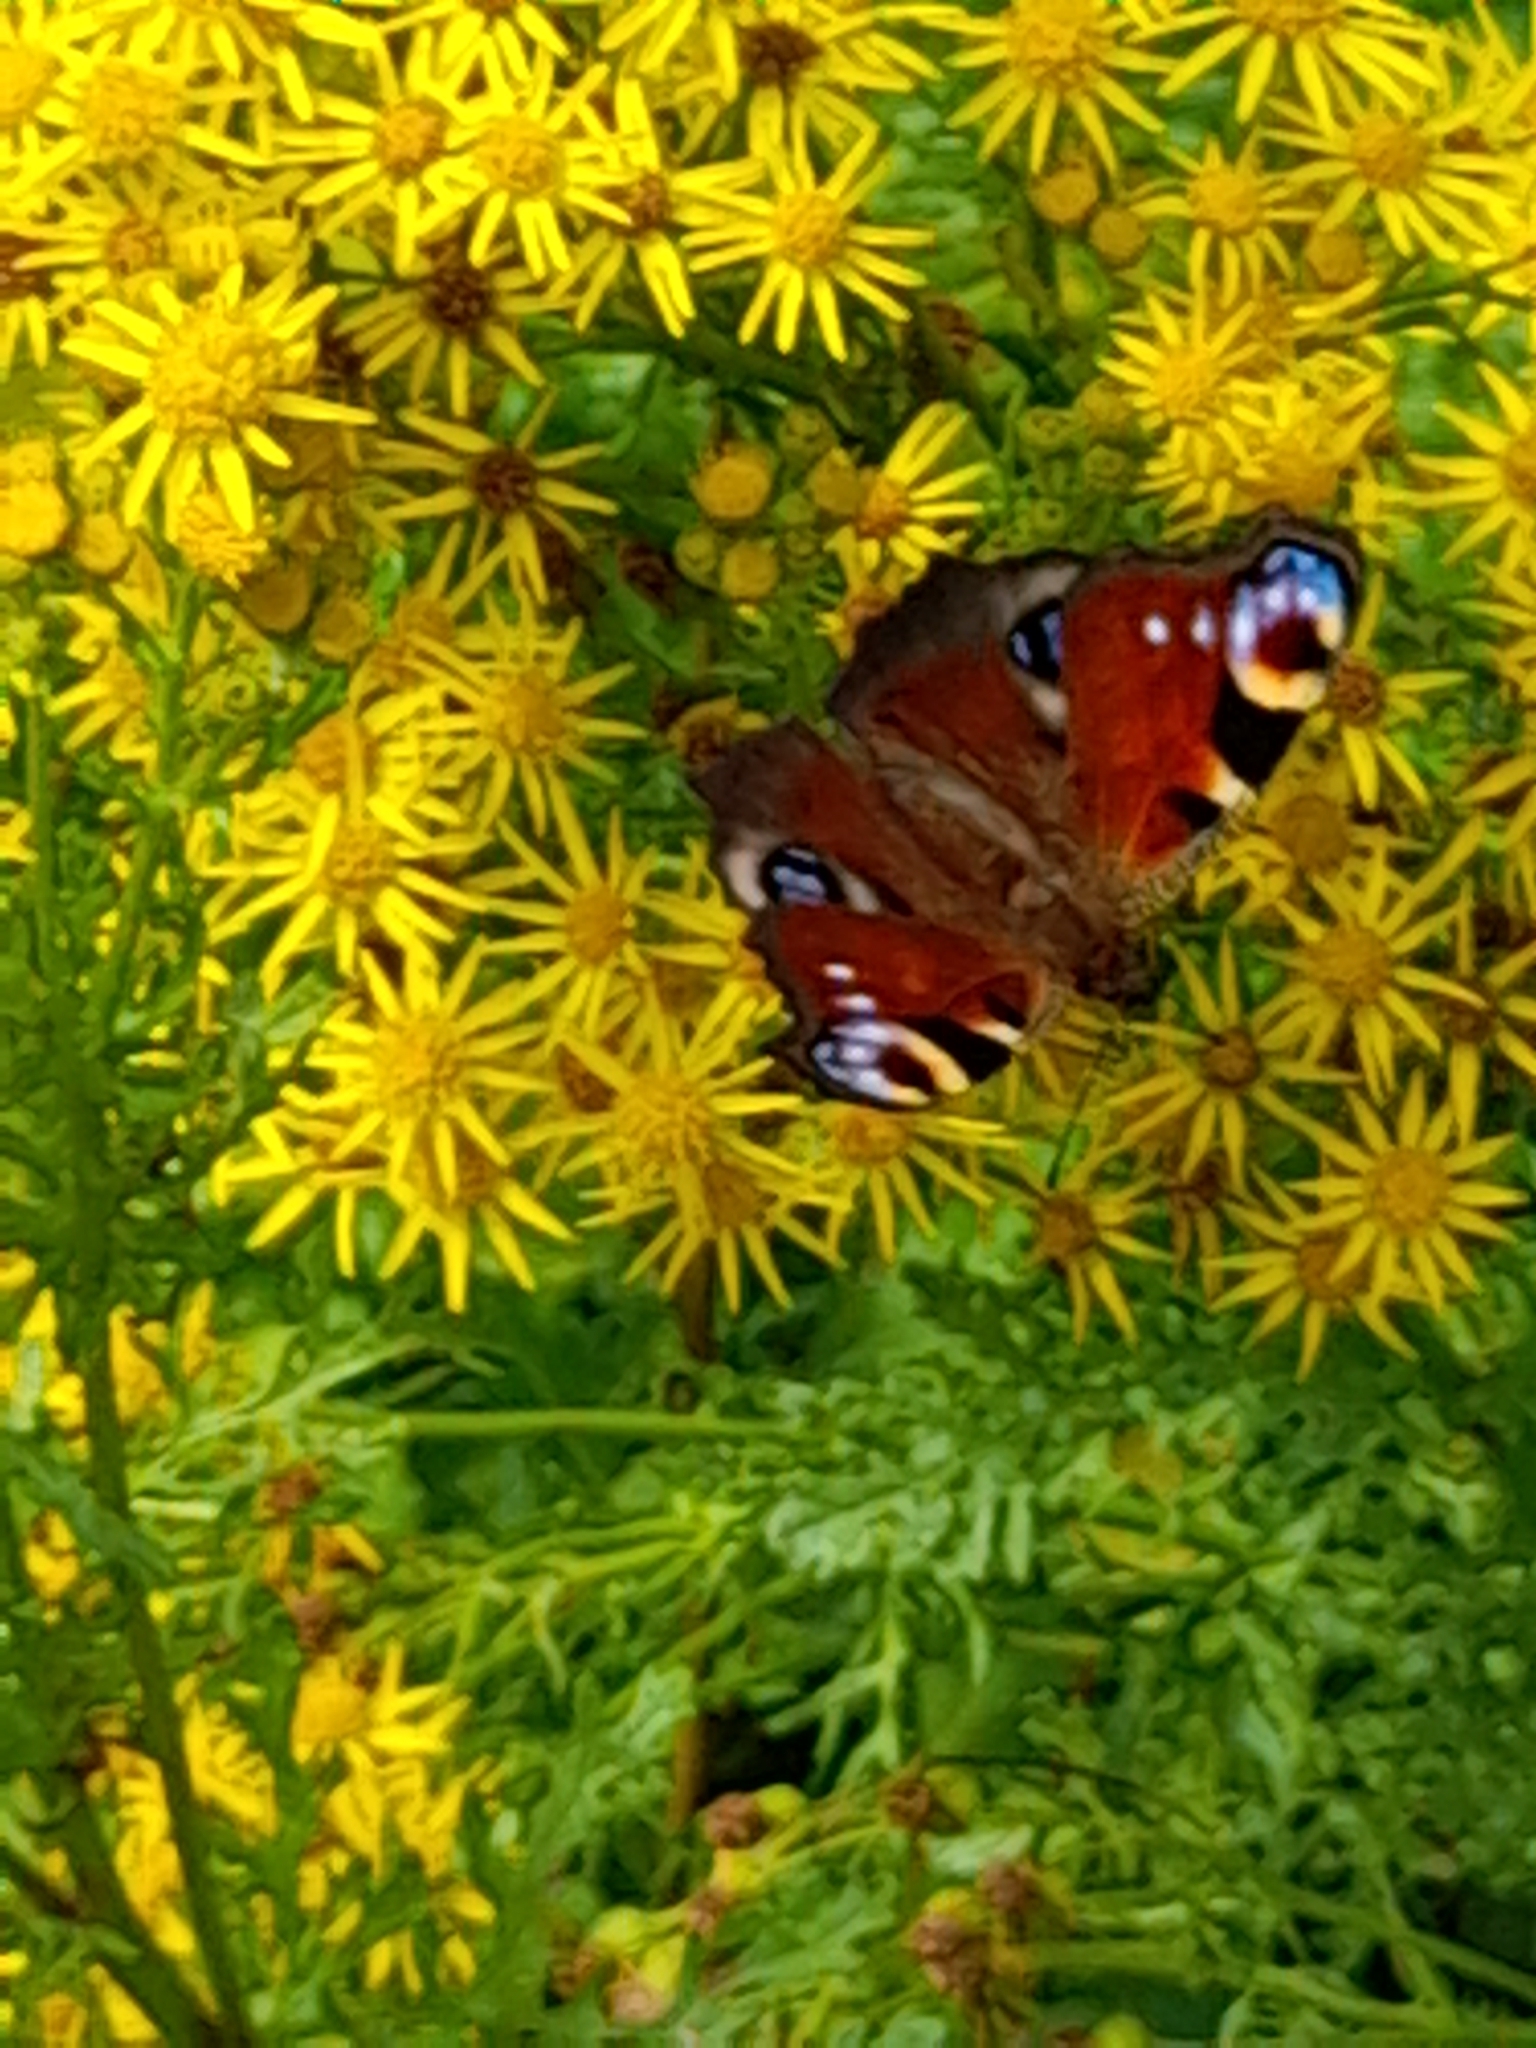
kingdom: Animalia
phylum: Arthropoda
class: Insecta
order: Lepidoptera
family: Nymphalidae
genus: Aglais
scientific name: Aglais io
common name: Peacock
